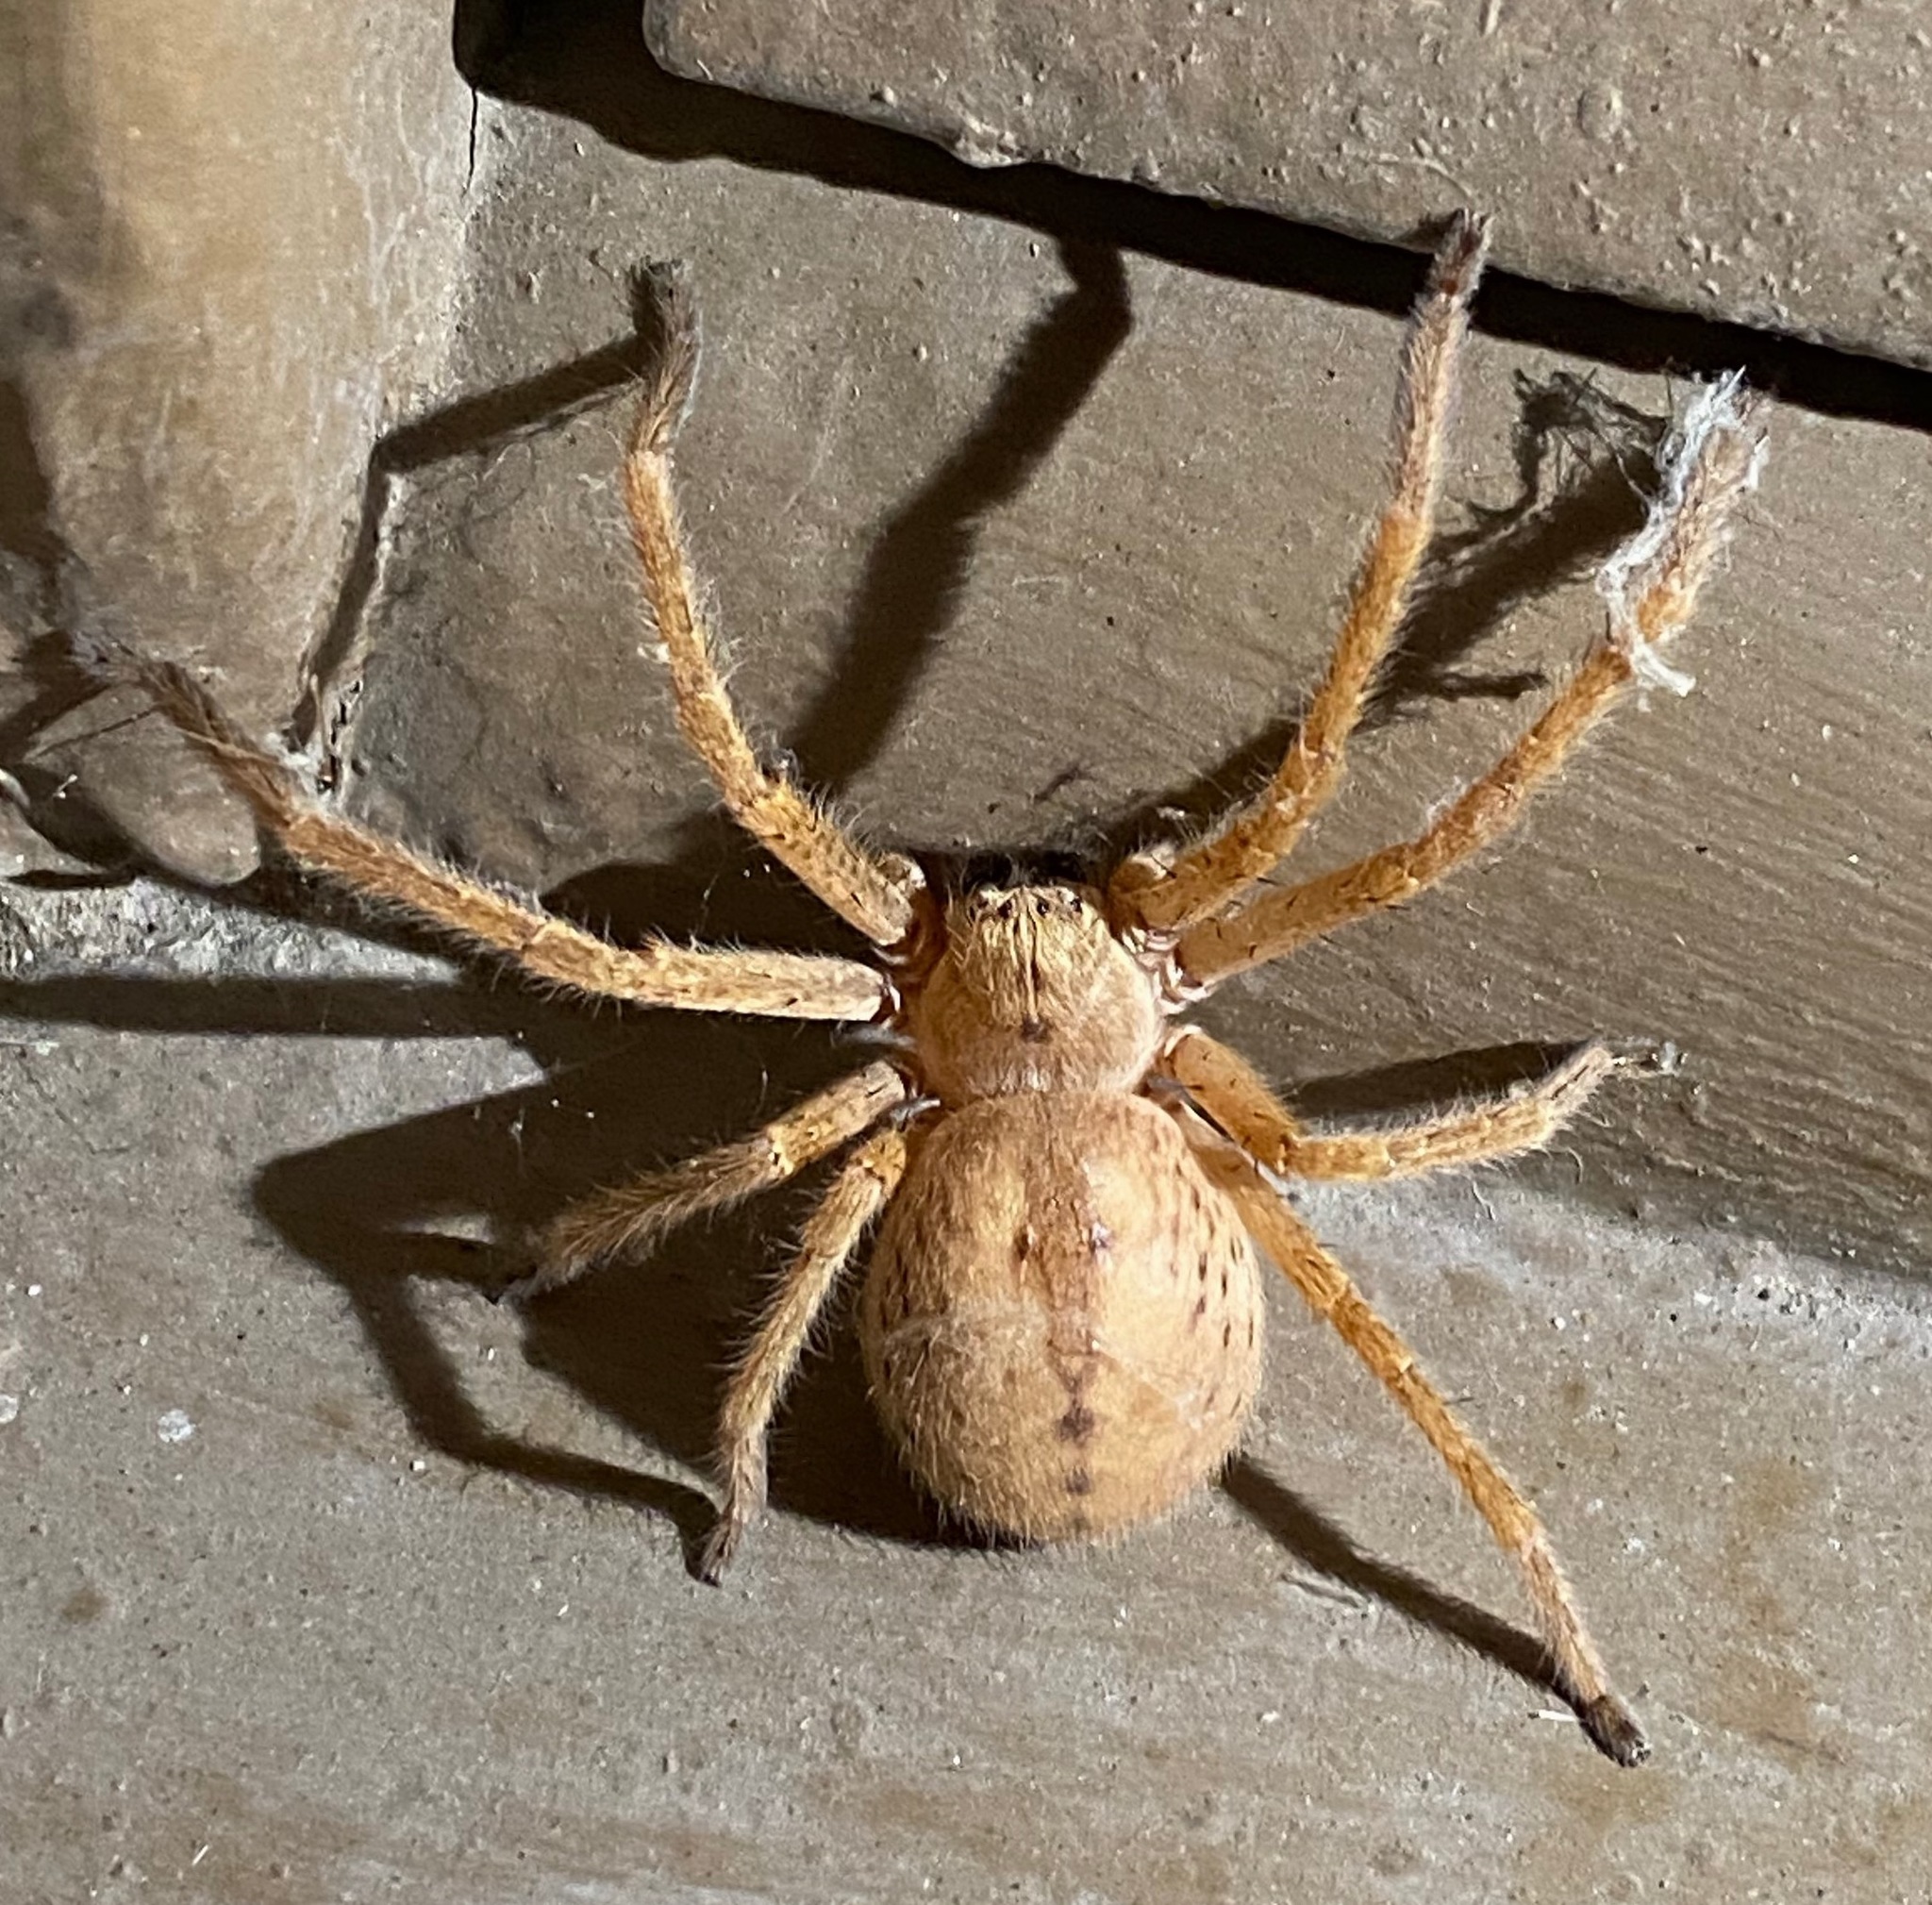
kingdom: Animalia
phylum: Arthropoda
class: Arachnida
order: Araneae
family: Sparassidae
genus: Olios
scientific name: Olios giganteus
